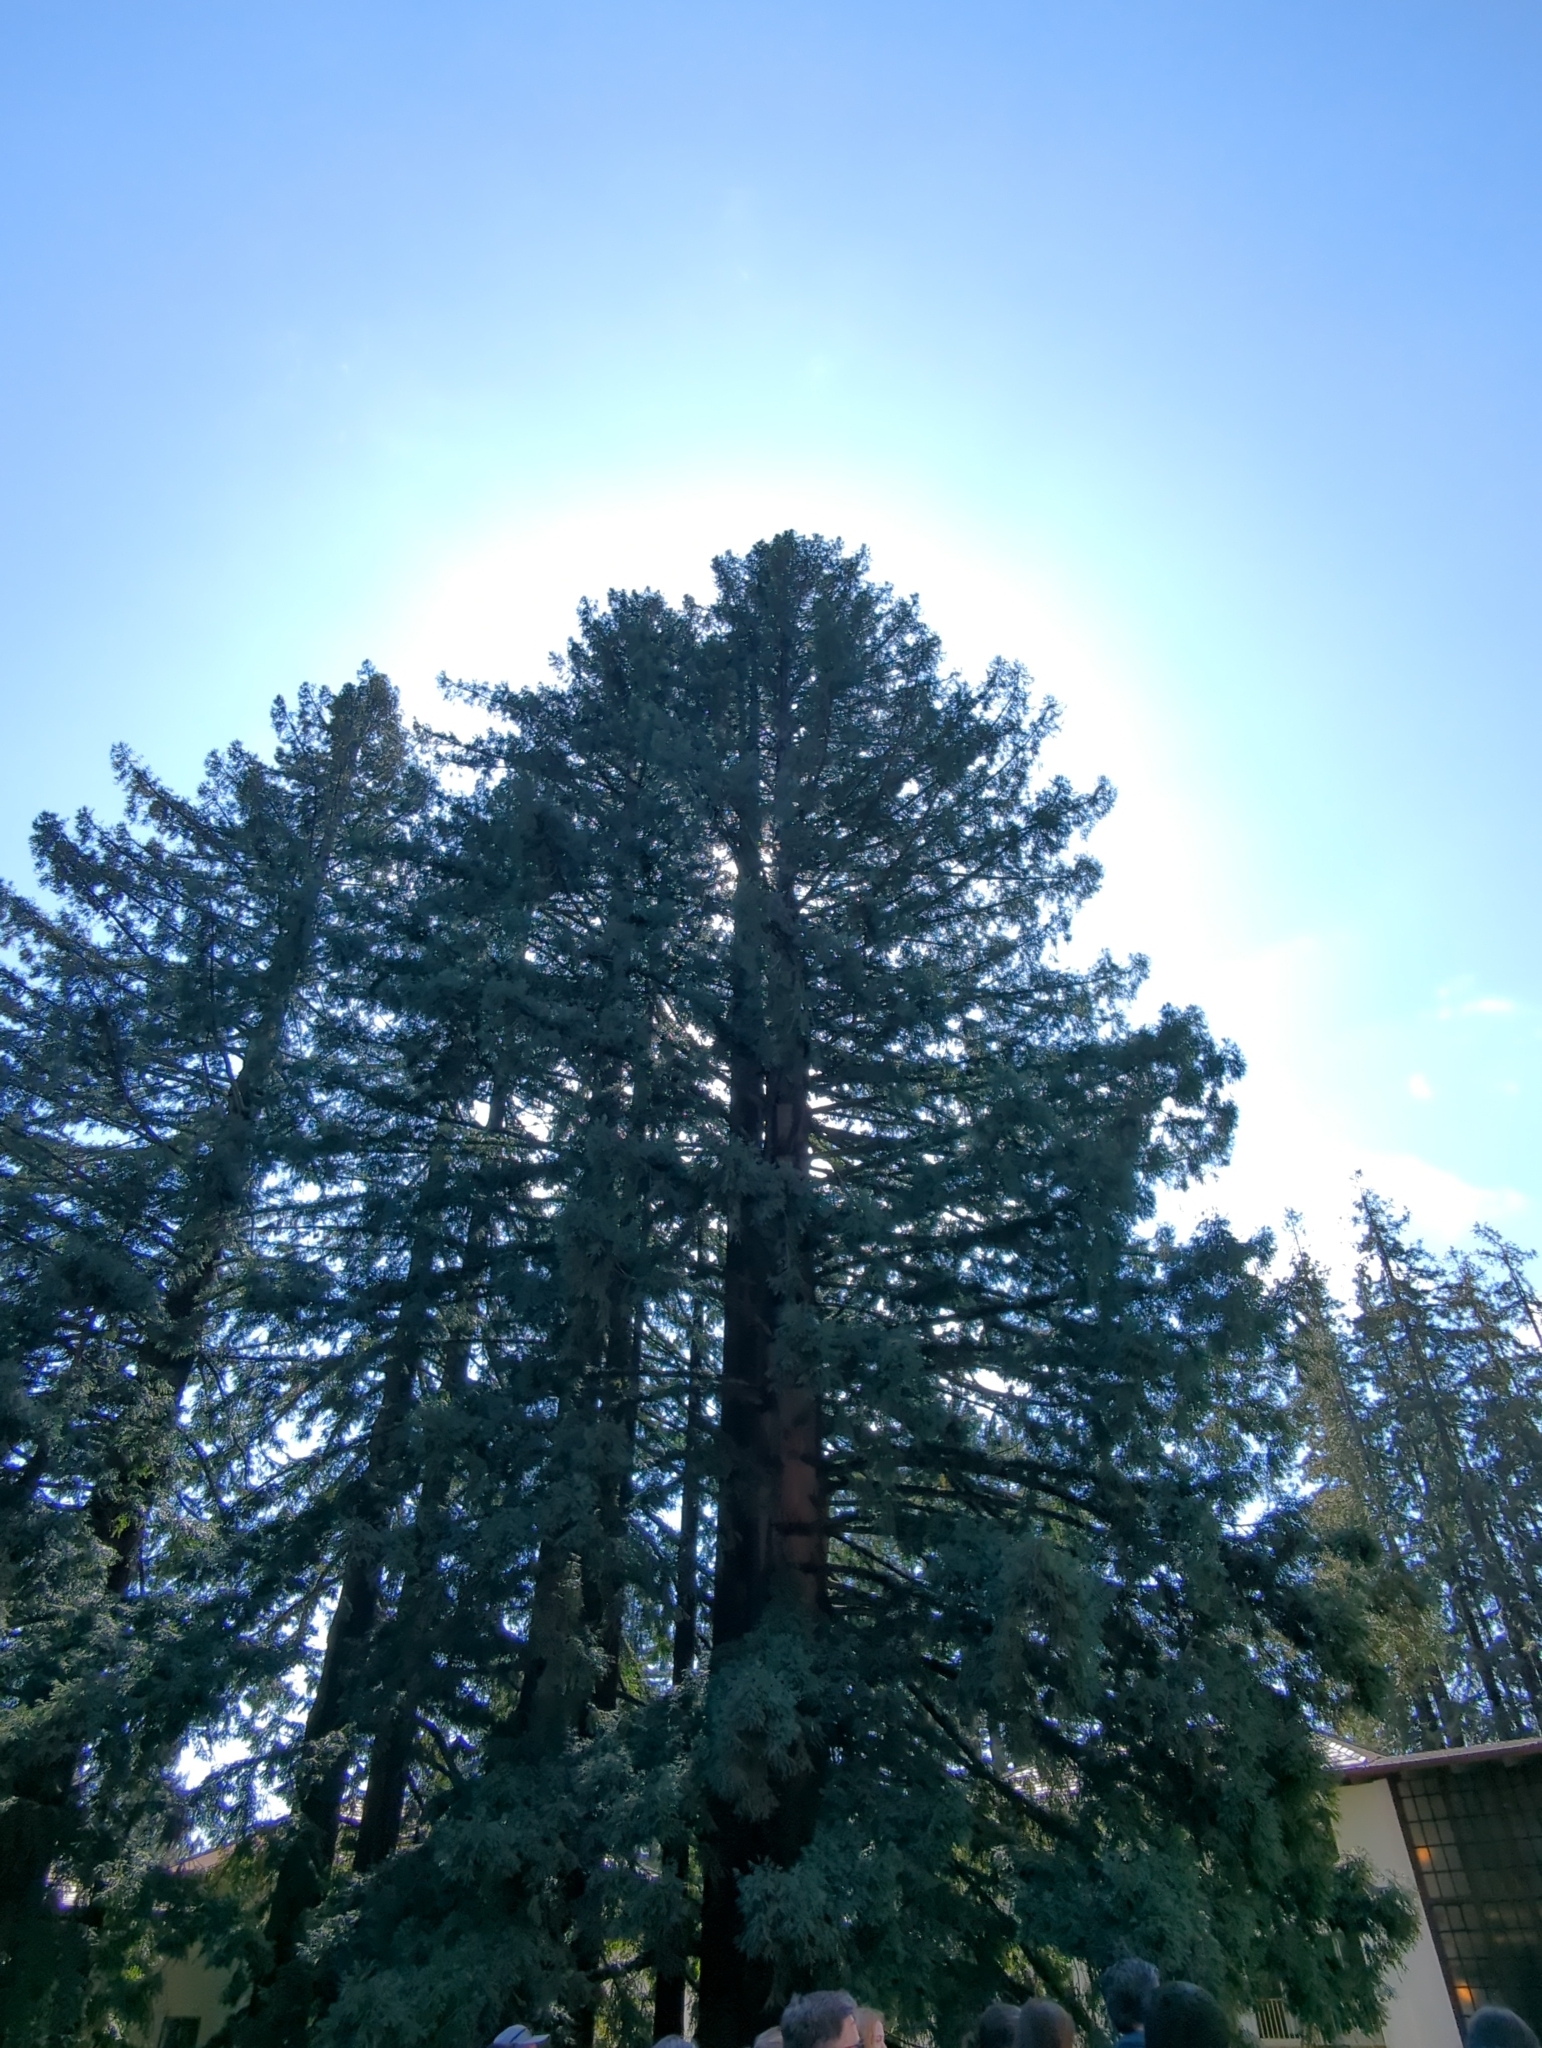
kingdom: Plantae
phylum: Tracheophyta
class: Pinopsida
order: Pinales
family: Cupressaceae
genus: Sequoia
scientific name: Sequoia sempervirens
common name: Coast redwood
